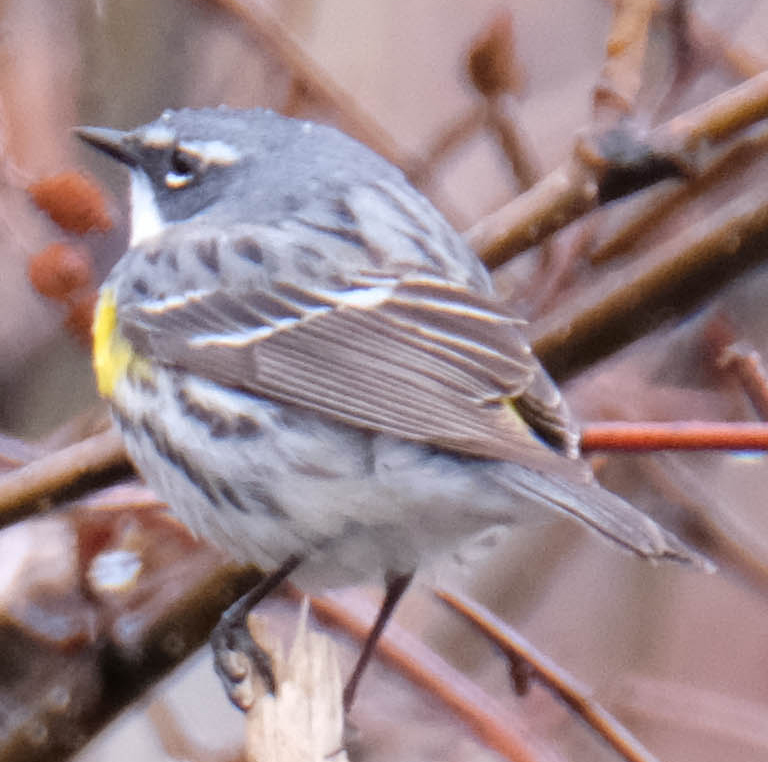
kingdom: Animalia
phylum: Chordata
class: Aves
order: Passeriformes
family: Parulidae
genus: Setophaga
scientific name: Setophaga coronata
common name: Myrtle warbler
